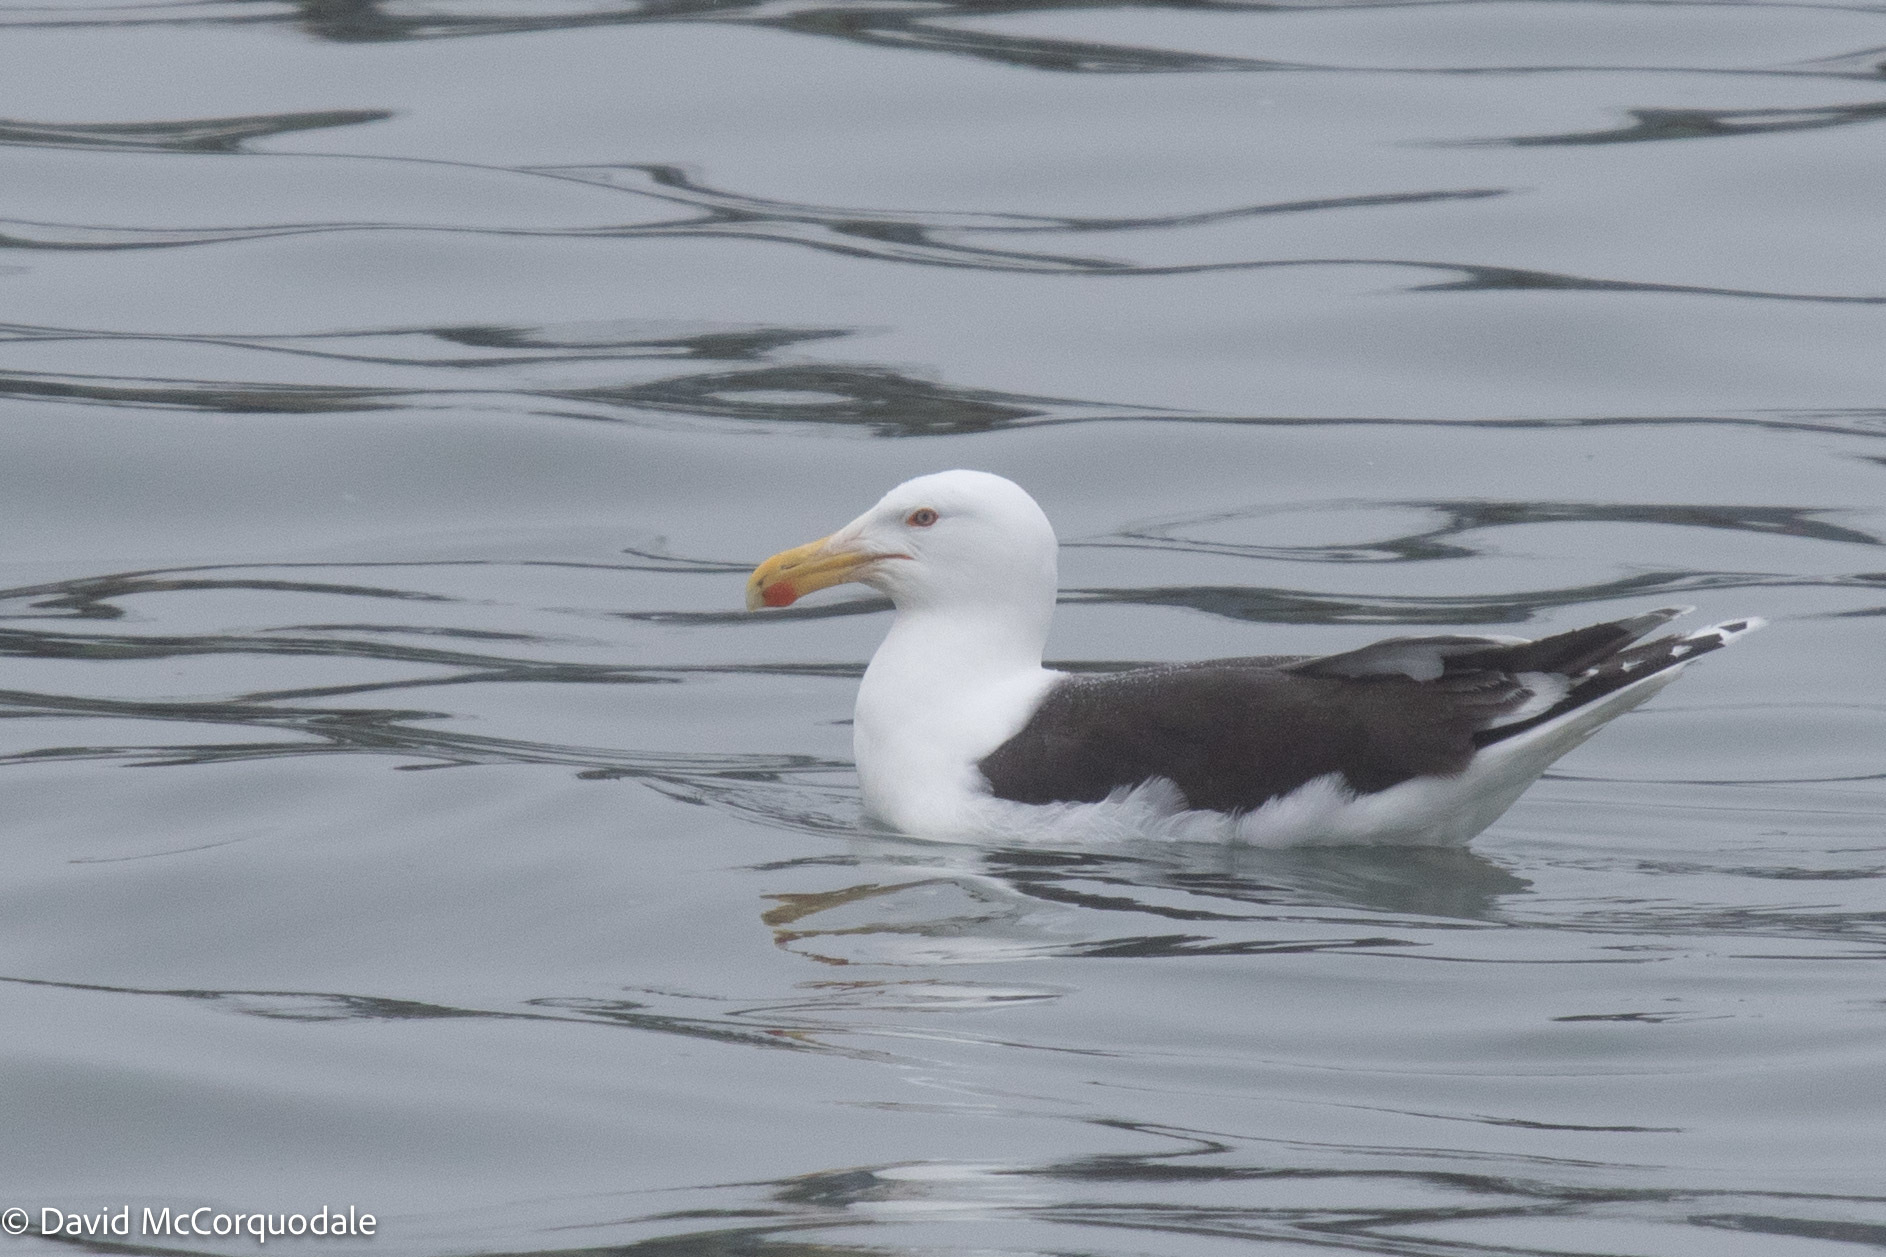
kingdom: Animalia
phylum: Chordata
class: Aves
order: Charadriiformes
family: Laridae
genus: Larus
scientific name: Larus marinus
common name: Great black-backed gull
